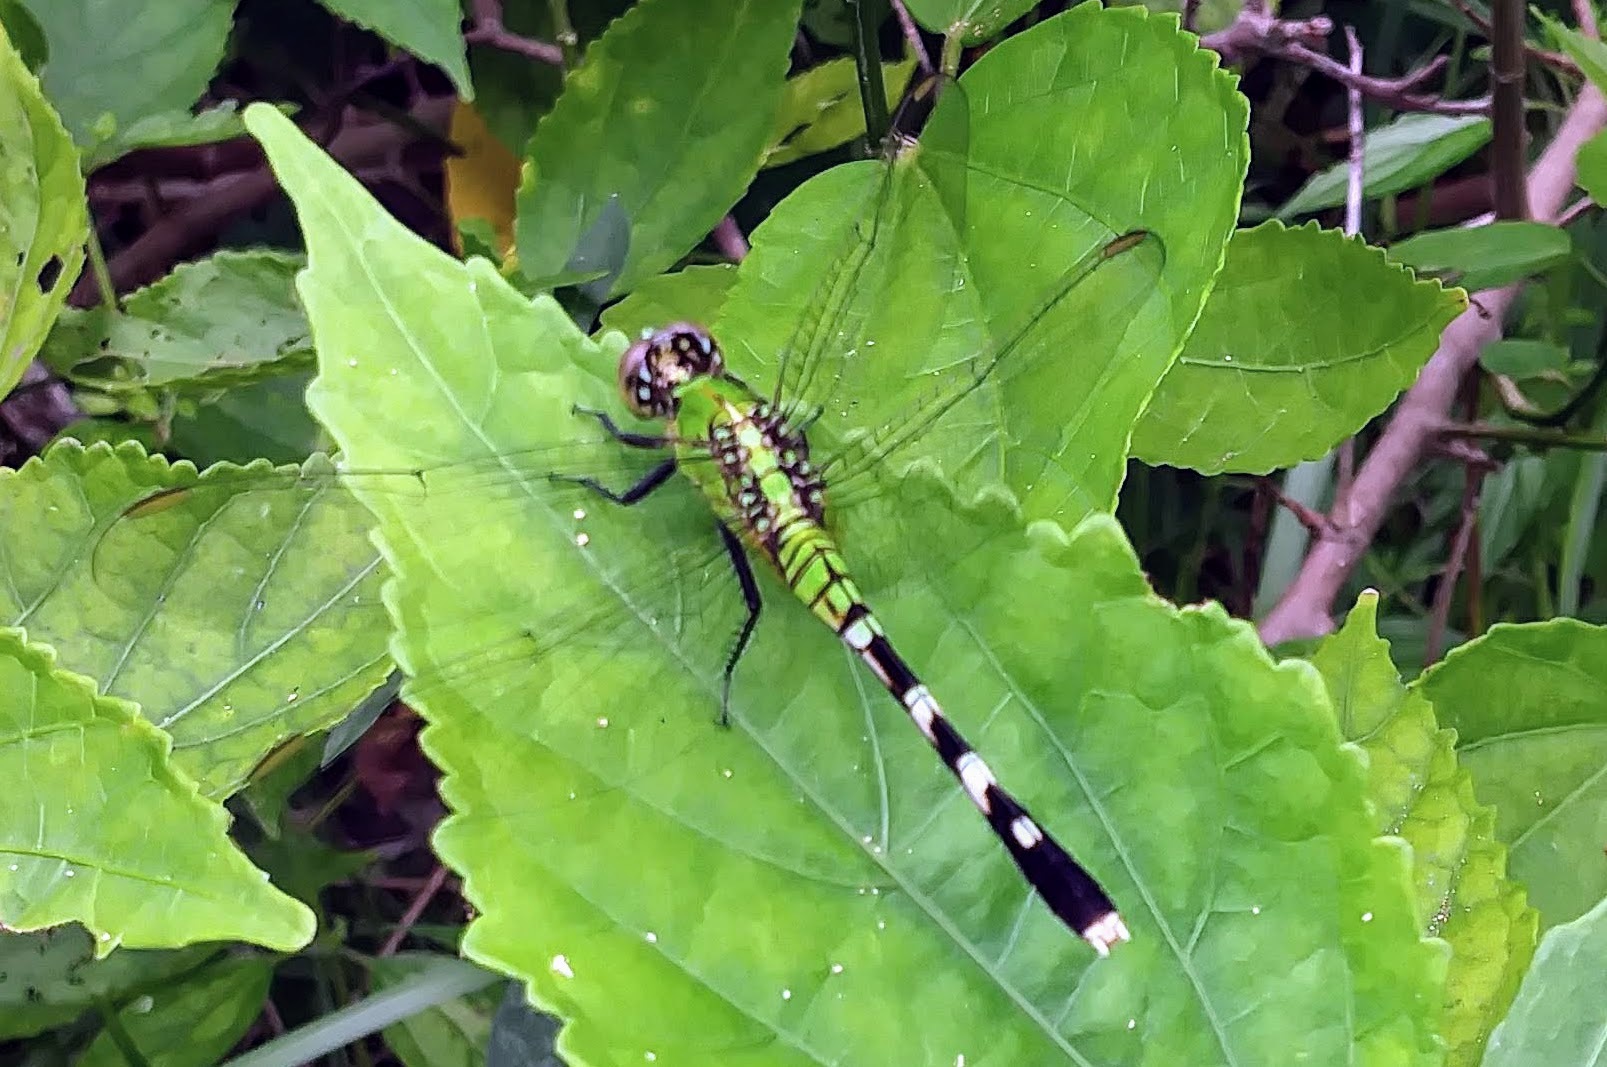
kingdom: Animalia
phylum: Arthropoda
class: Insecta
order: Odonata
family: Libellulidae
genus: Erythemis
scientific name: Erythemis simplicicollis
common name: Eastern pondhawk
